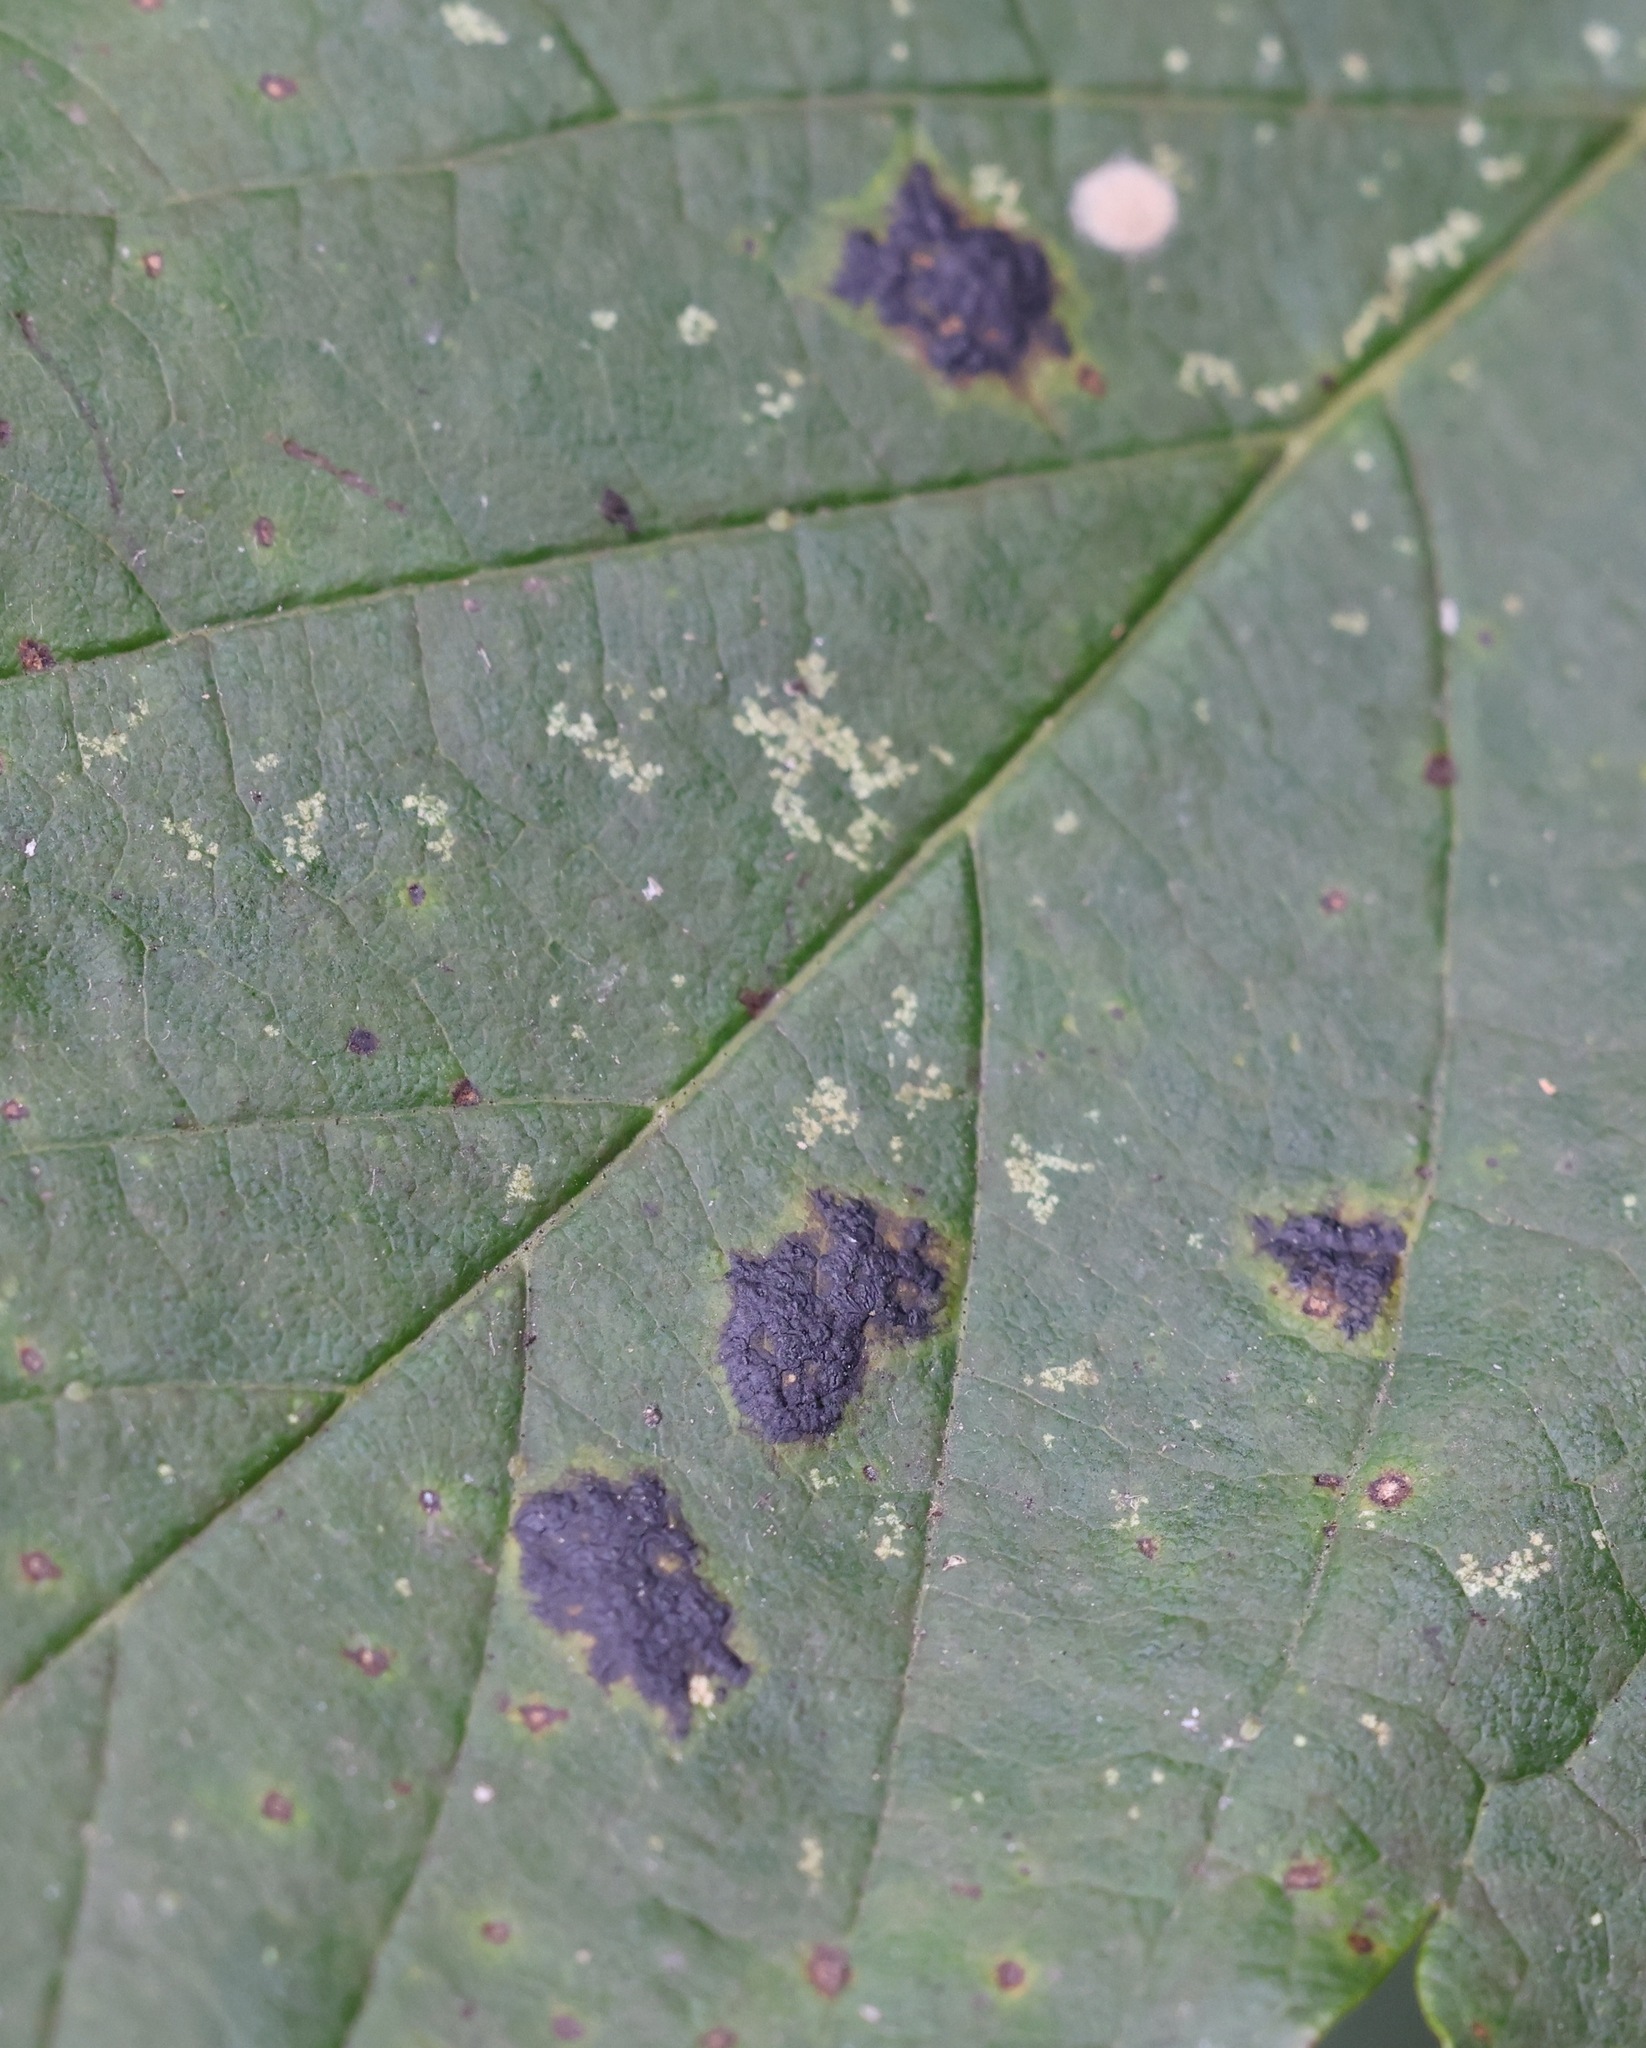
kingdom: Fungi
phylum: Ascomycota
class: Leotiomycetes
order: Rhytismatales
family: Rhytismataceae
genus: Rhytisma
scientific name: Rhytisma acerinum
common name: European tar spot
